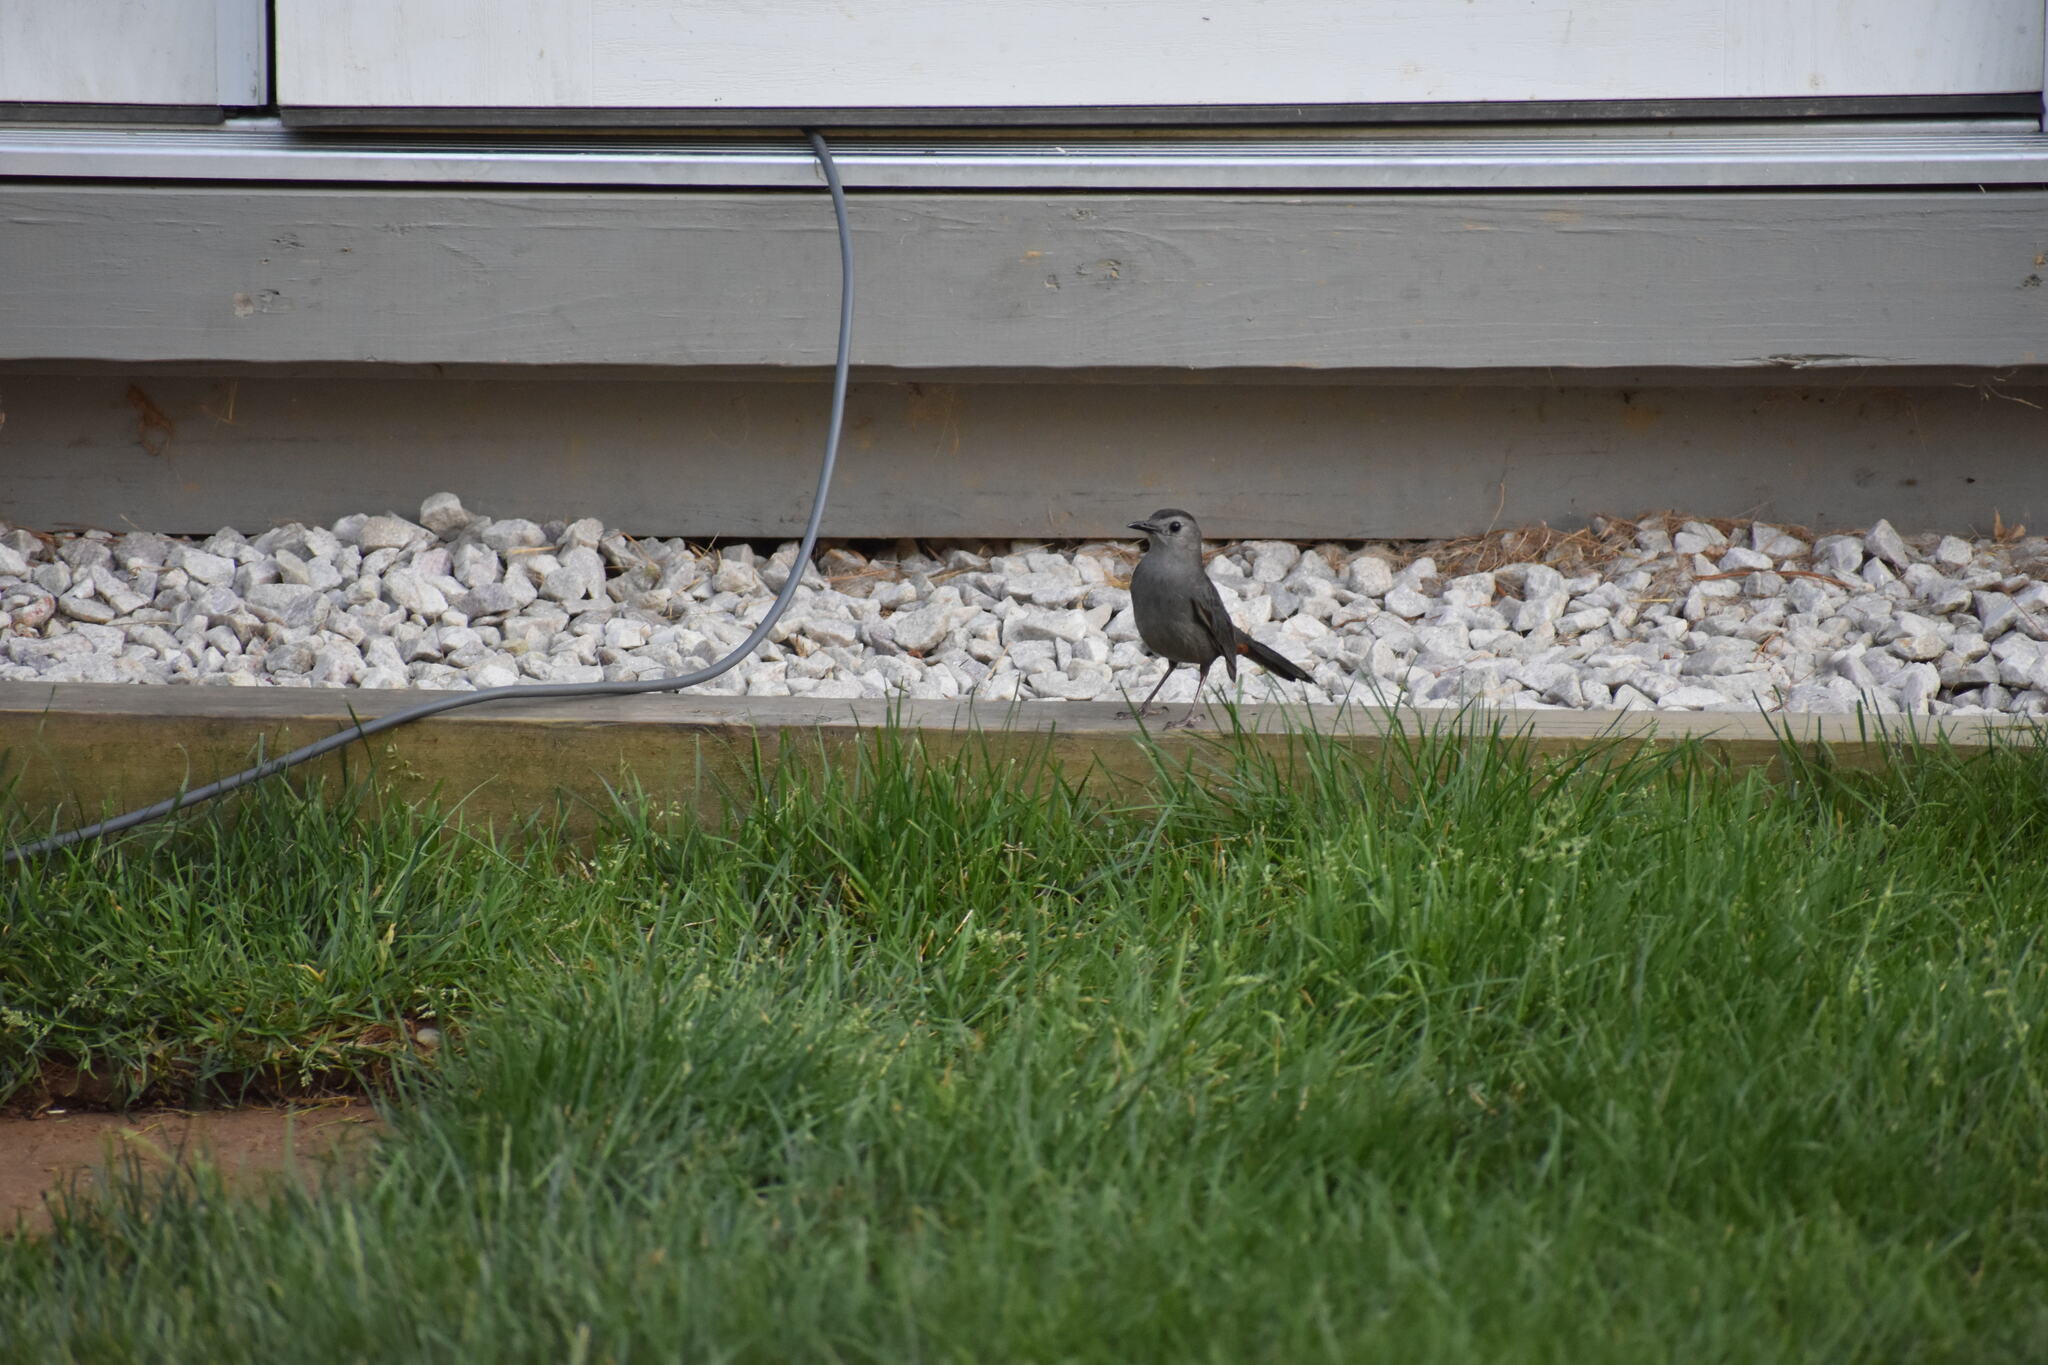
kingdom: Animalia
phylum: Chordata
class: Aves
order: Passeriformes
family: Mimidae
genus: Dumetella
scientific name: Dumetella carolinensis
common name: Gray catbird
